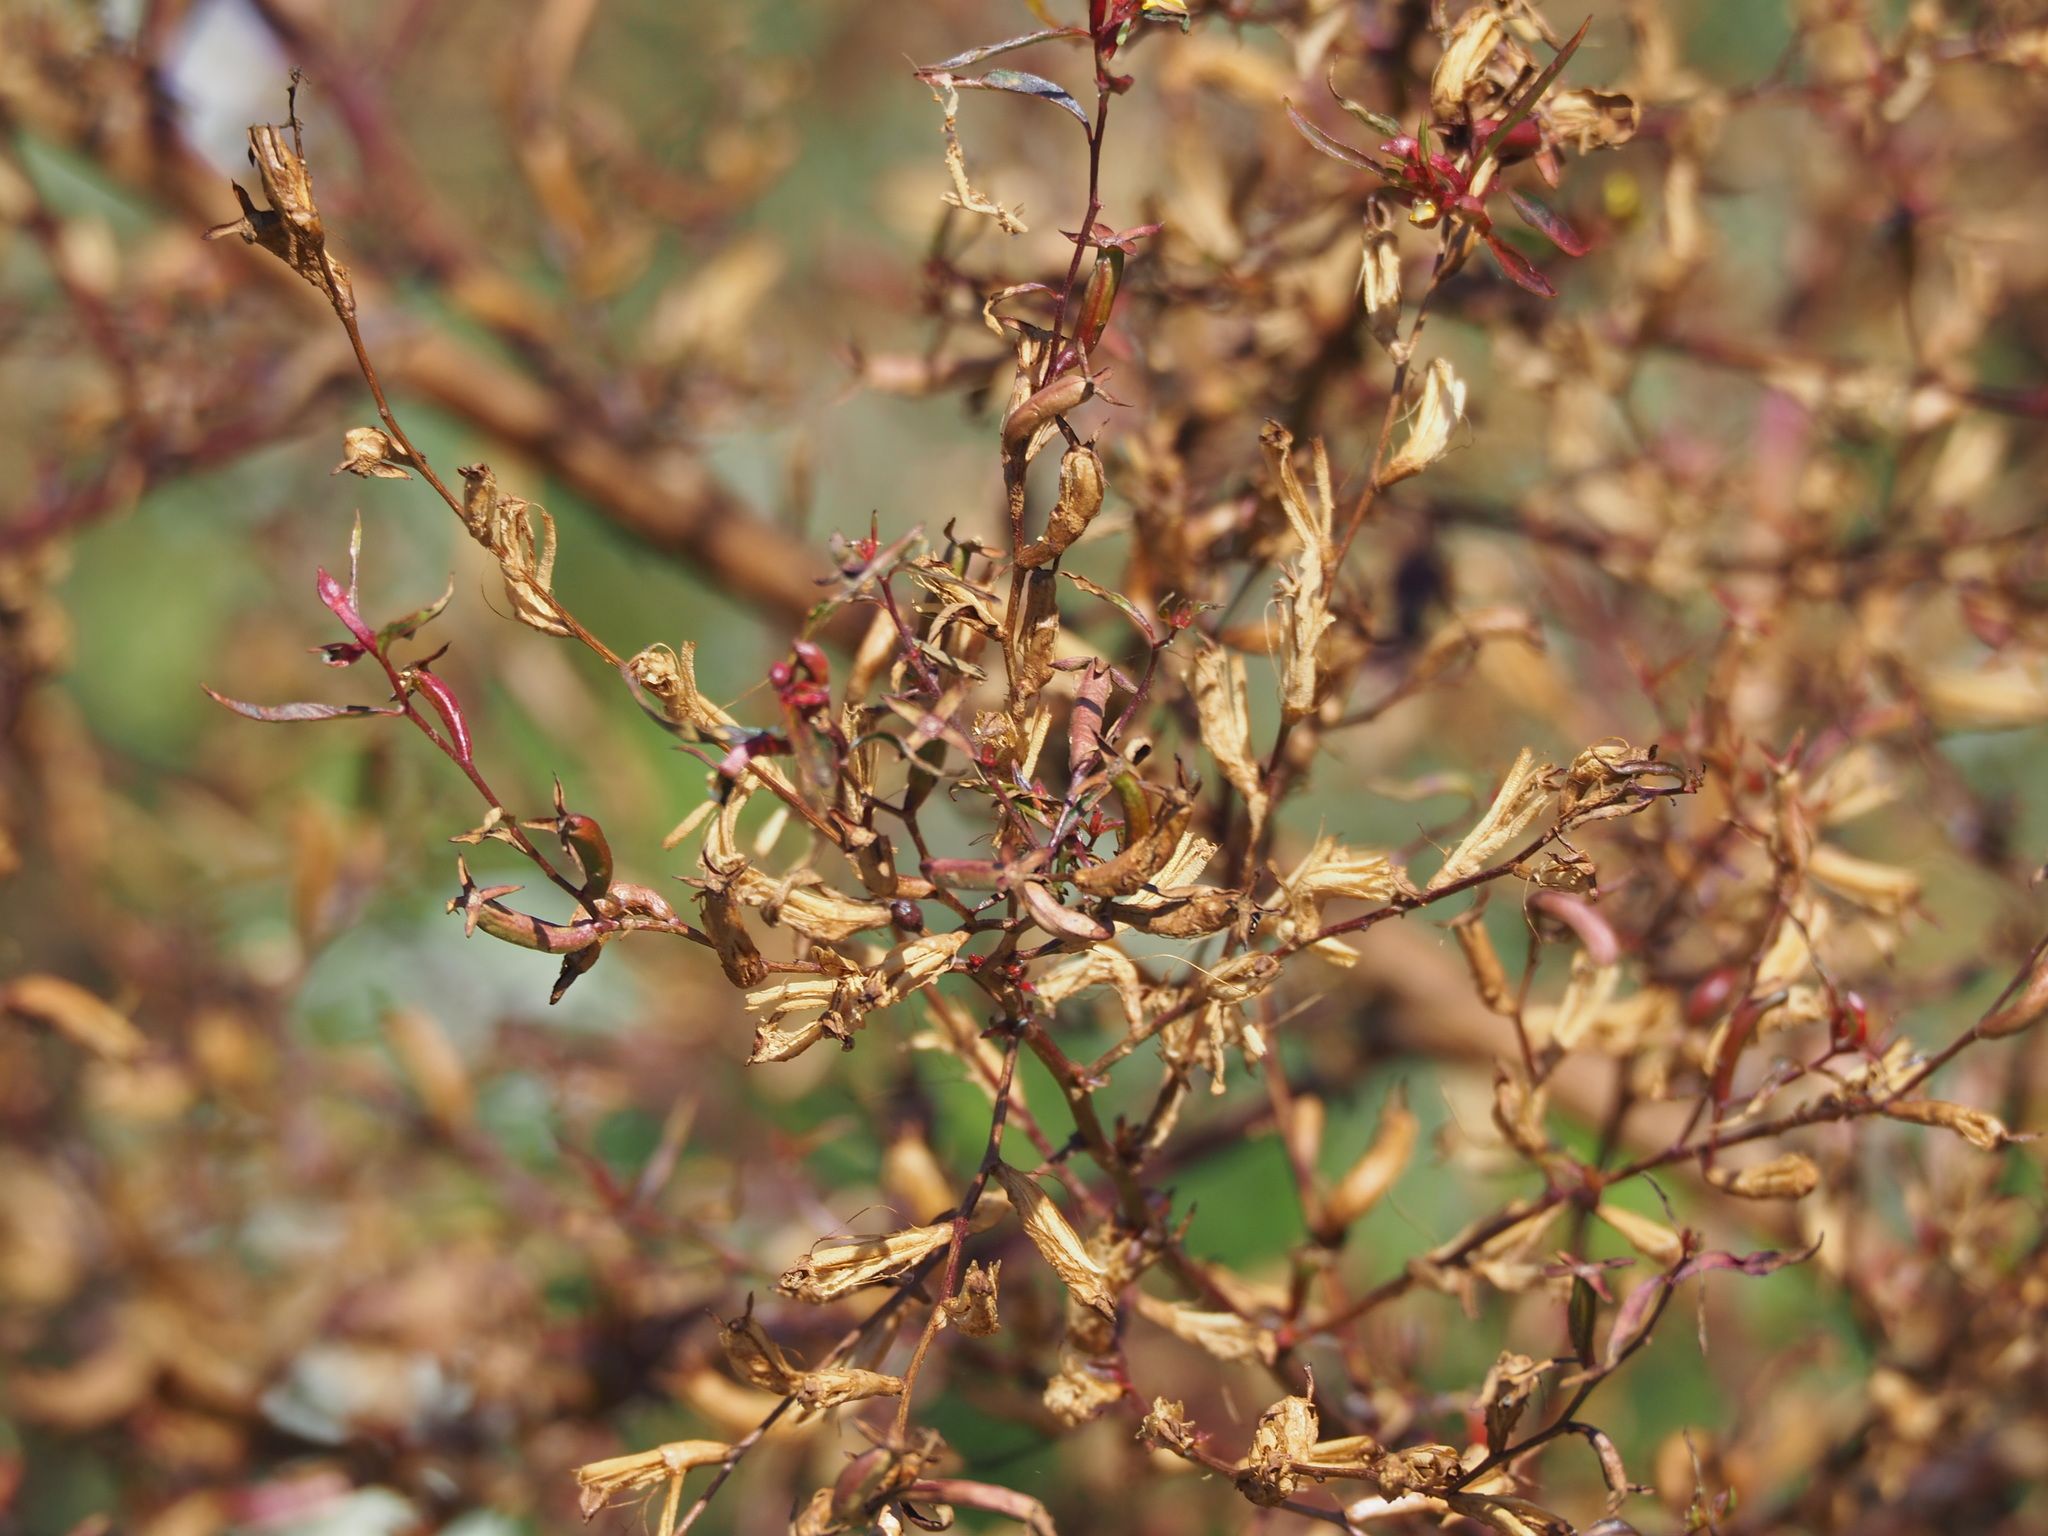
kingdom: Plantae
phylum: Tracheophyta
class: Magnoliopsida
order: Myrtales
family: Onagraceae
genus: Ludwigia
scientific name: Ludwigia hyssopifolia
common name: Linear leaf water primrose
